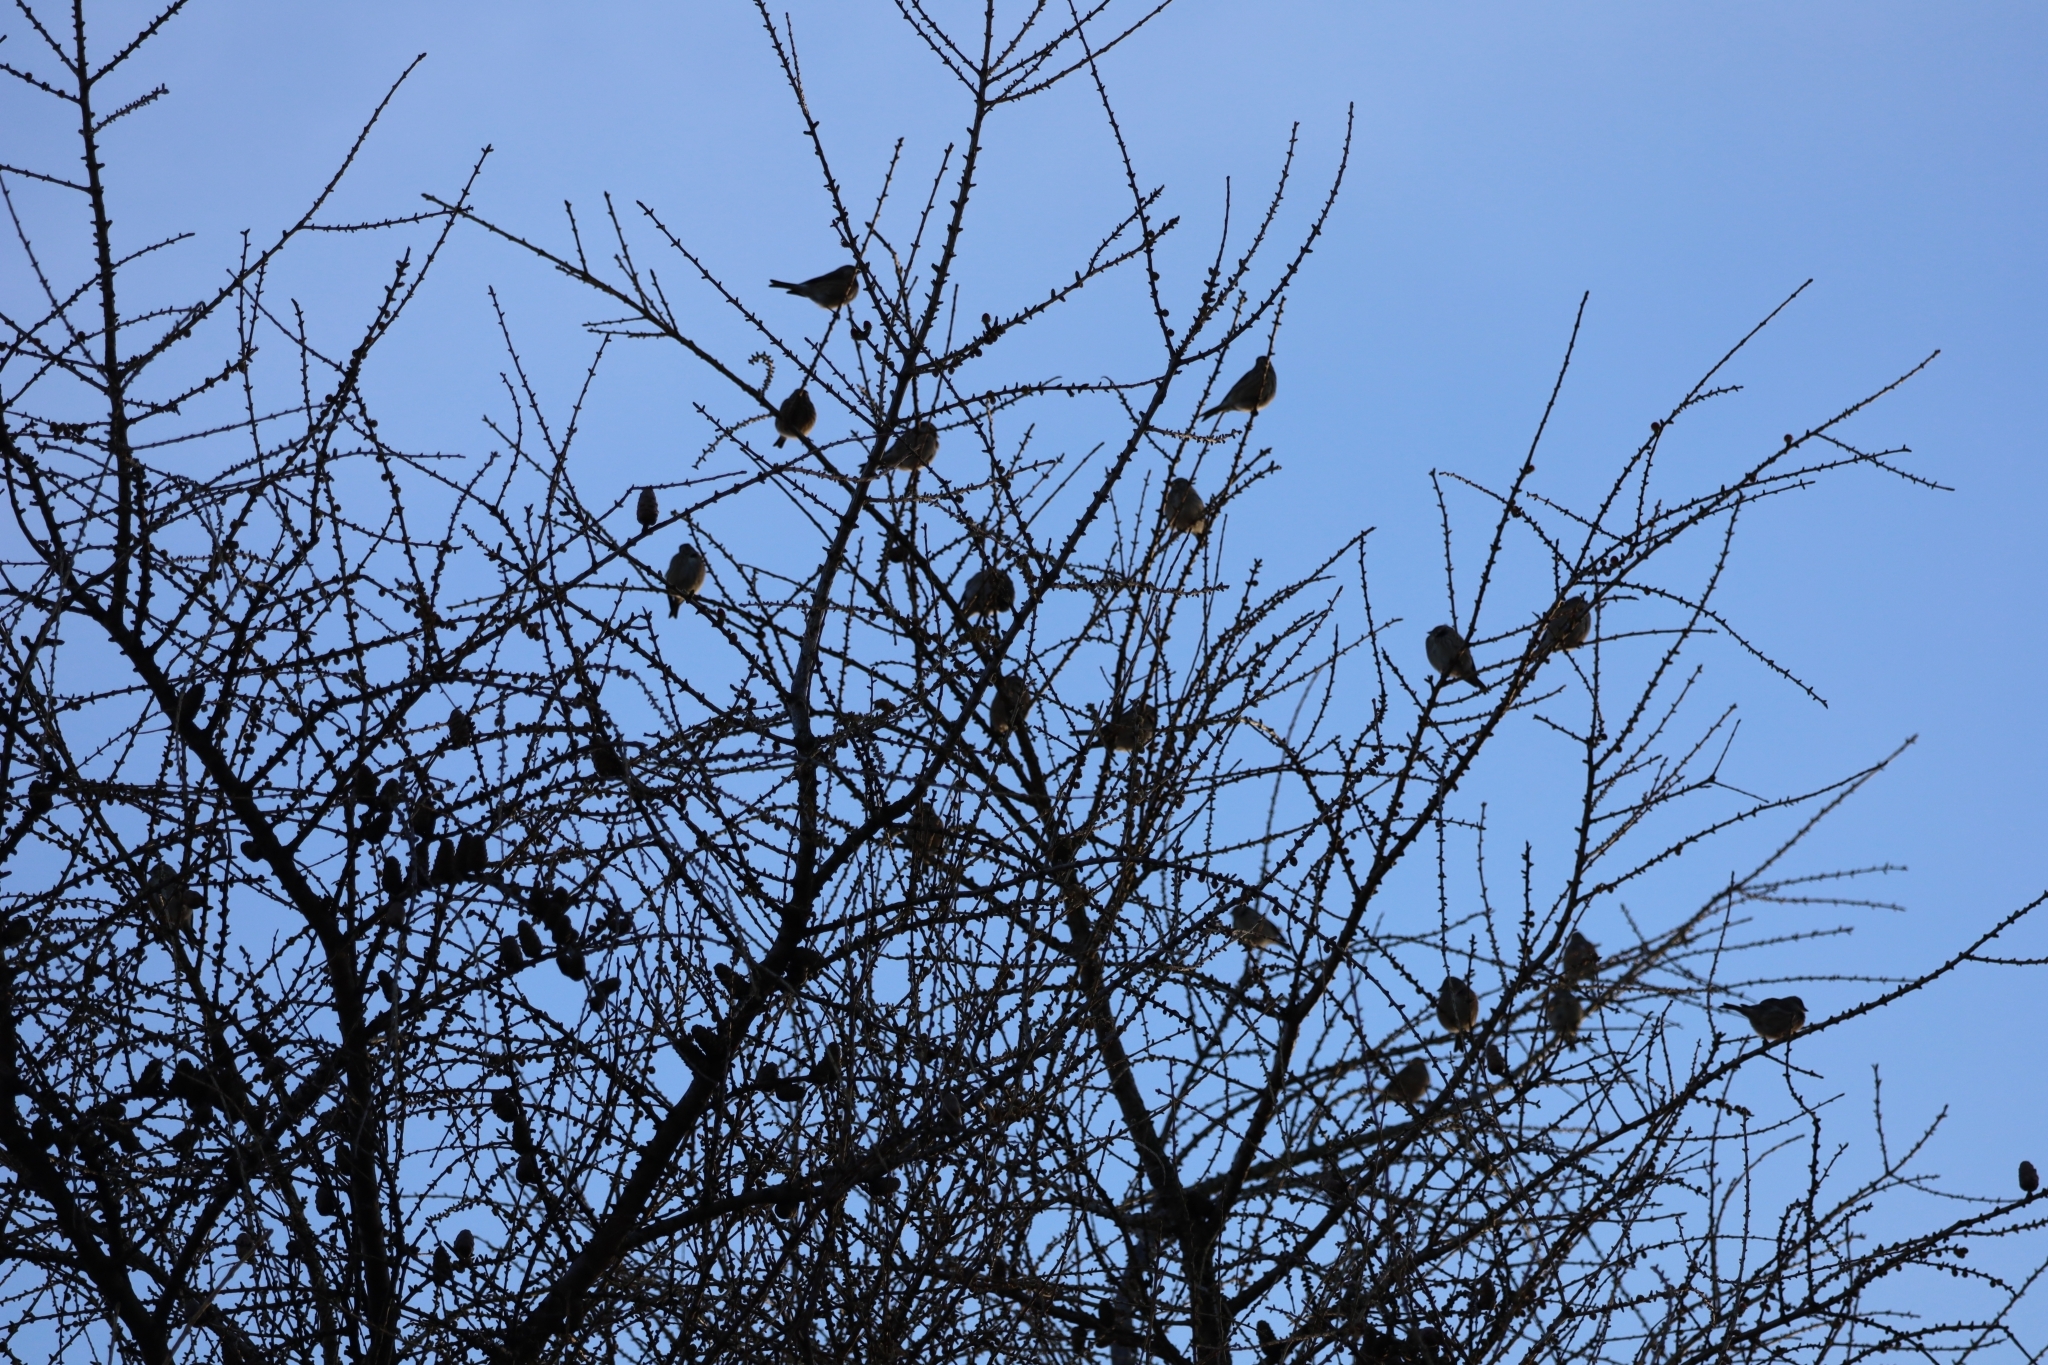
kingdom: Animalia
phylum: Chordata
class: Aves
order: Passeriformes
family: Fringillidae
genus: Linaria
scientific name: Linaria cannabina
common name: Common linnet
